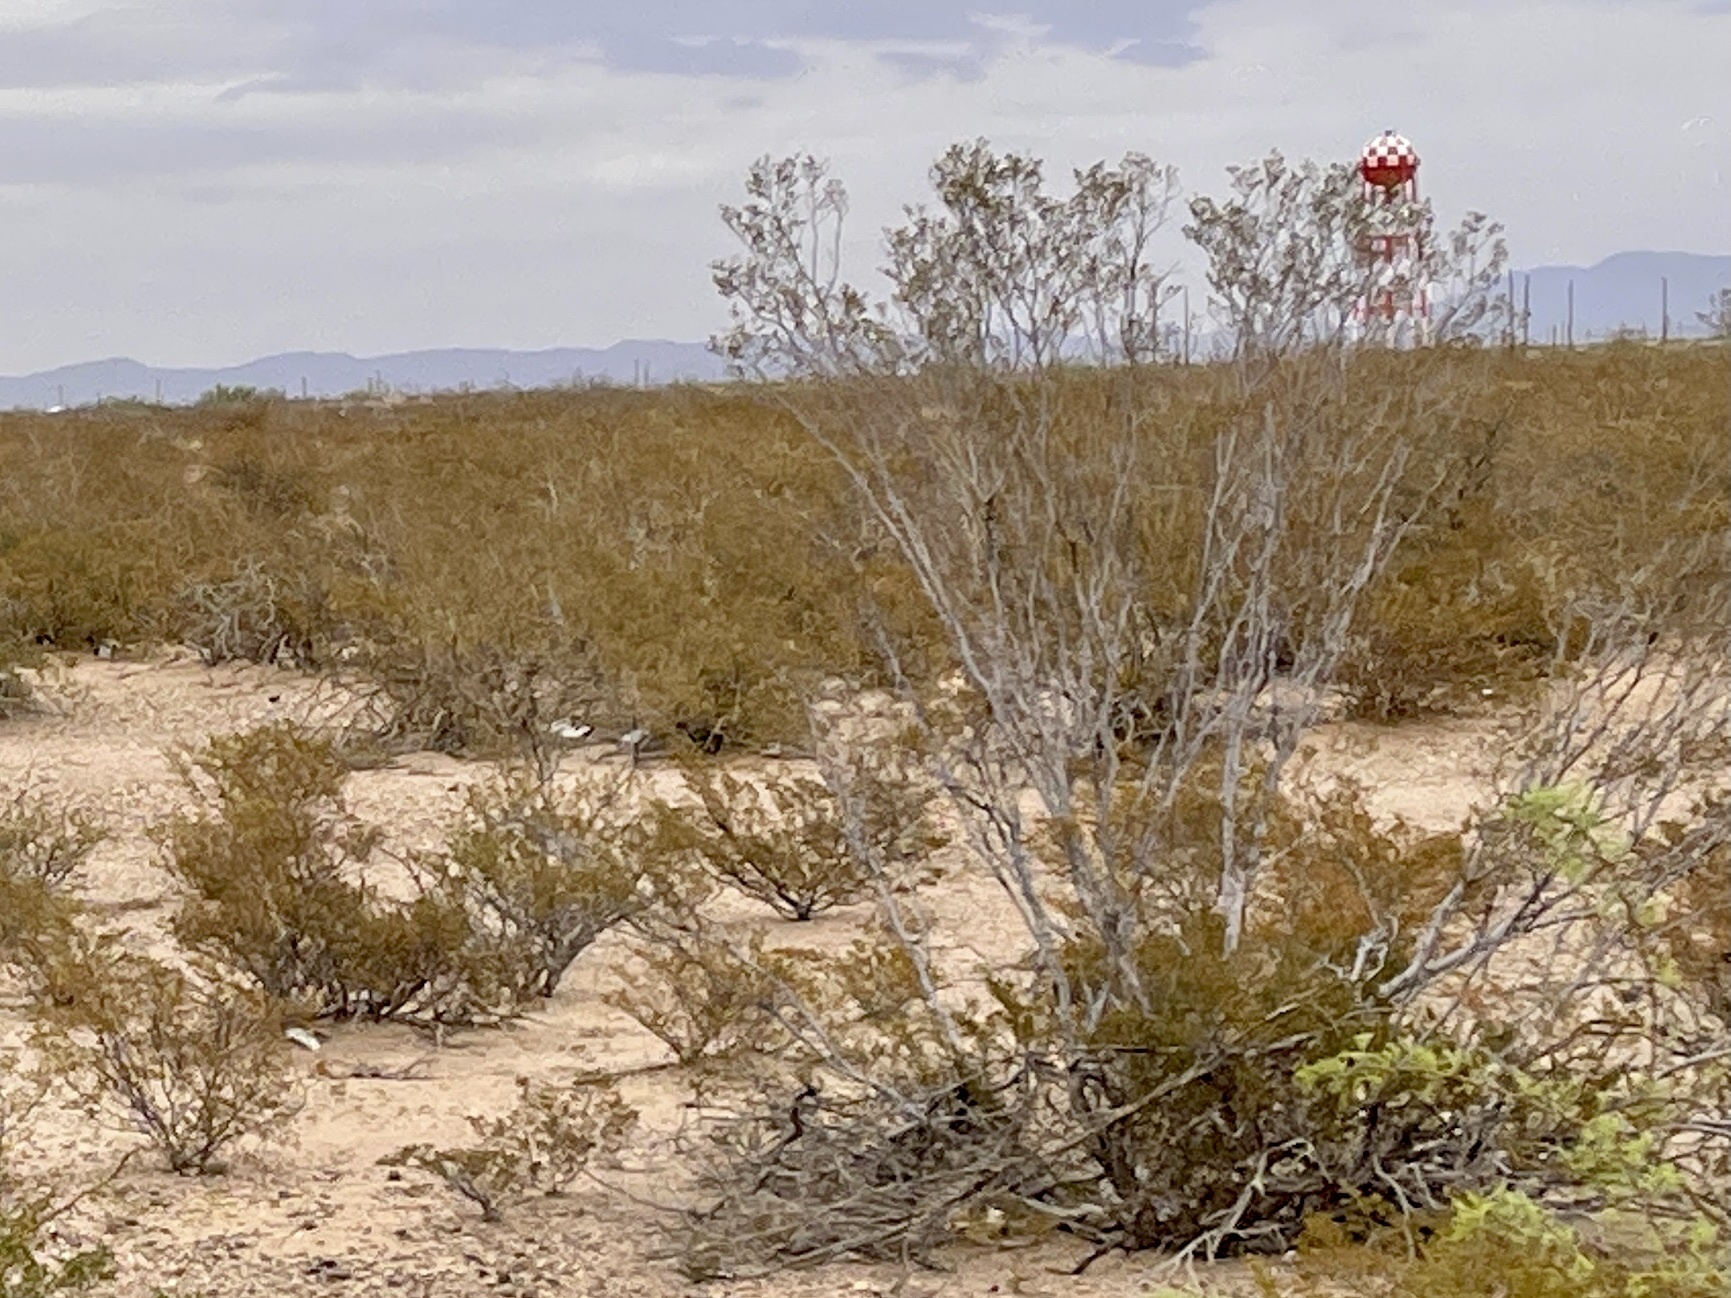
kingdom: Plantae
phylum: Tracheophyta
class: Magnoliopsida
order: Zygophyllales
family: Zygophyllaceae
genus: Larrea
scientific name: Larrea tridentata
